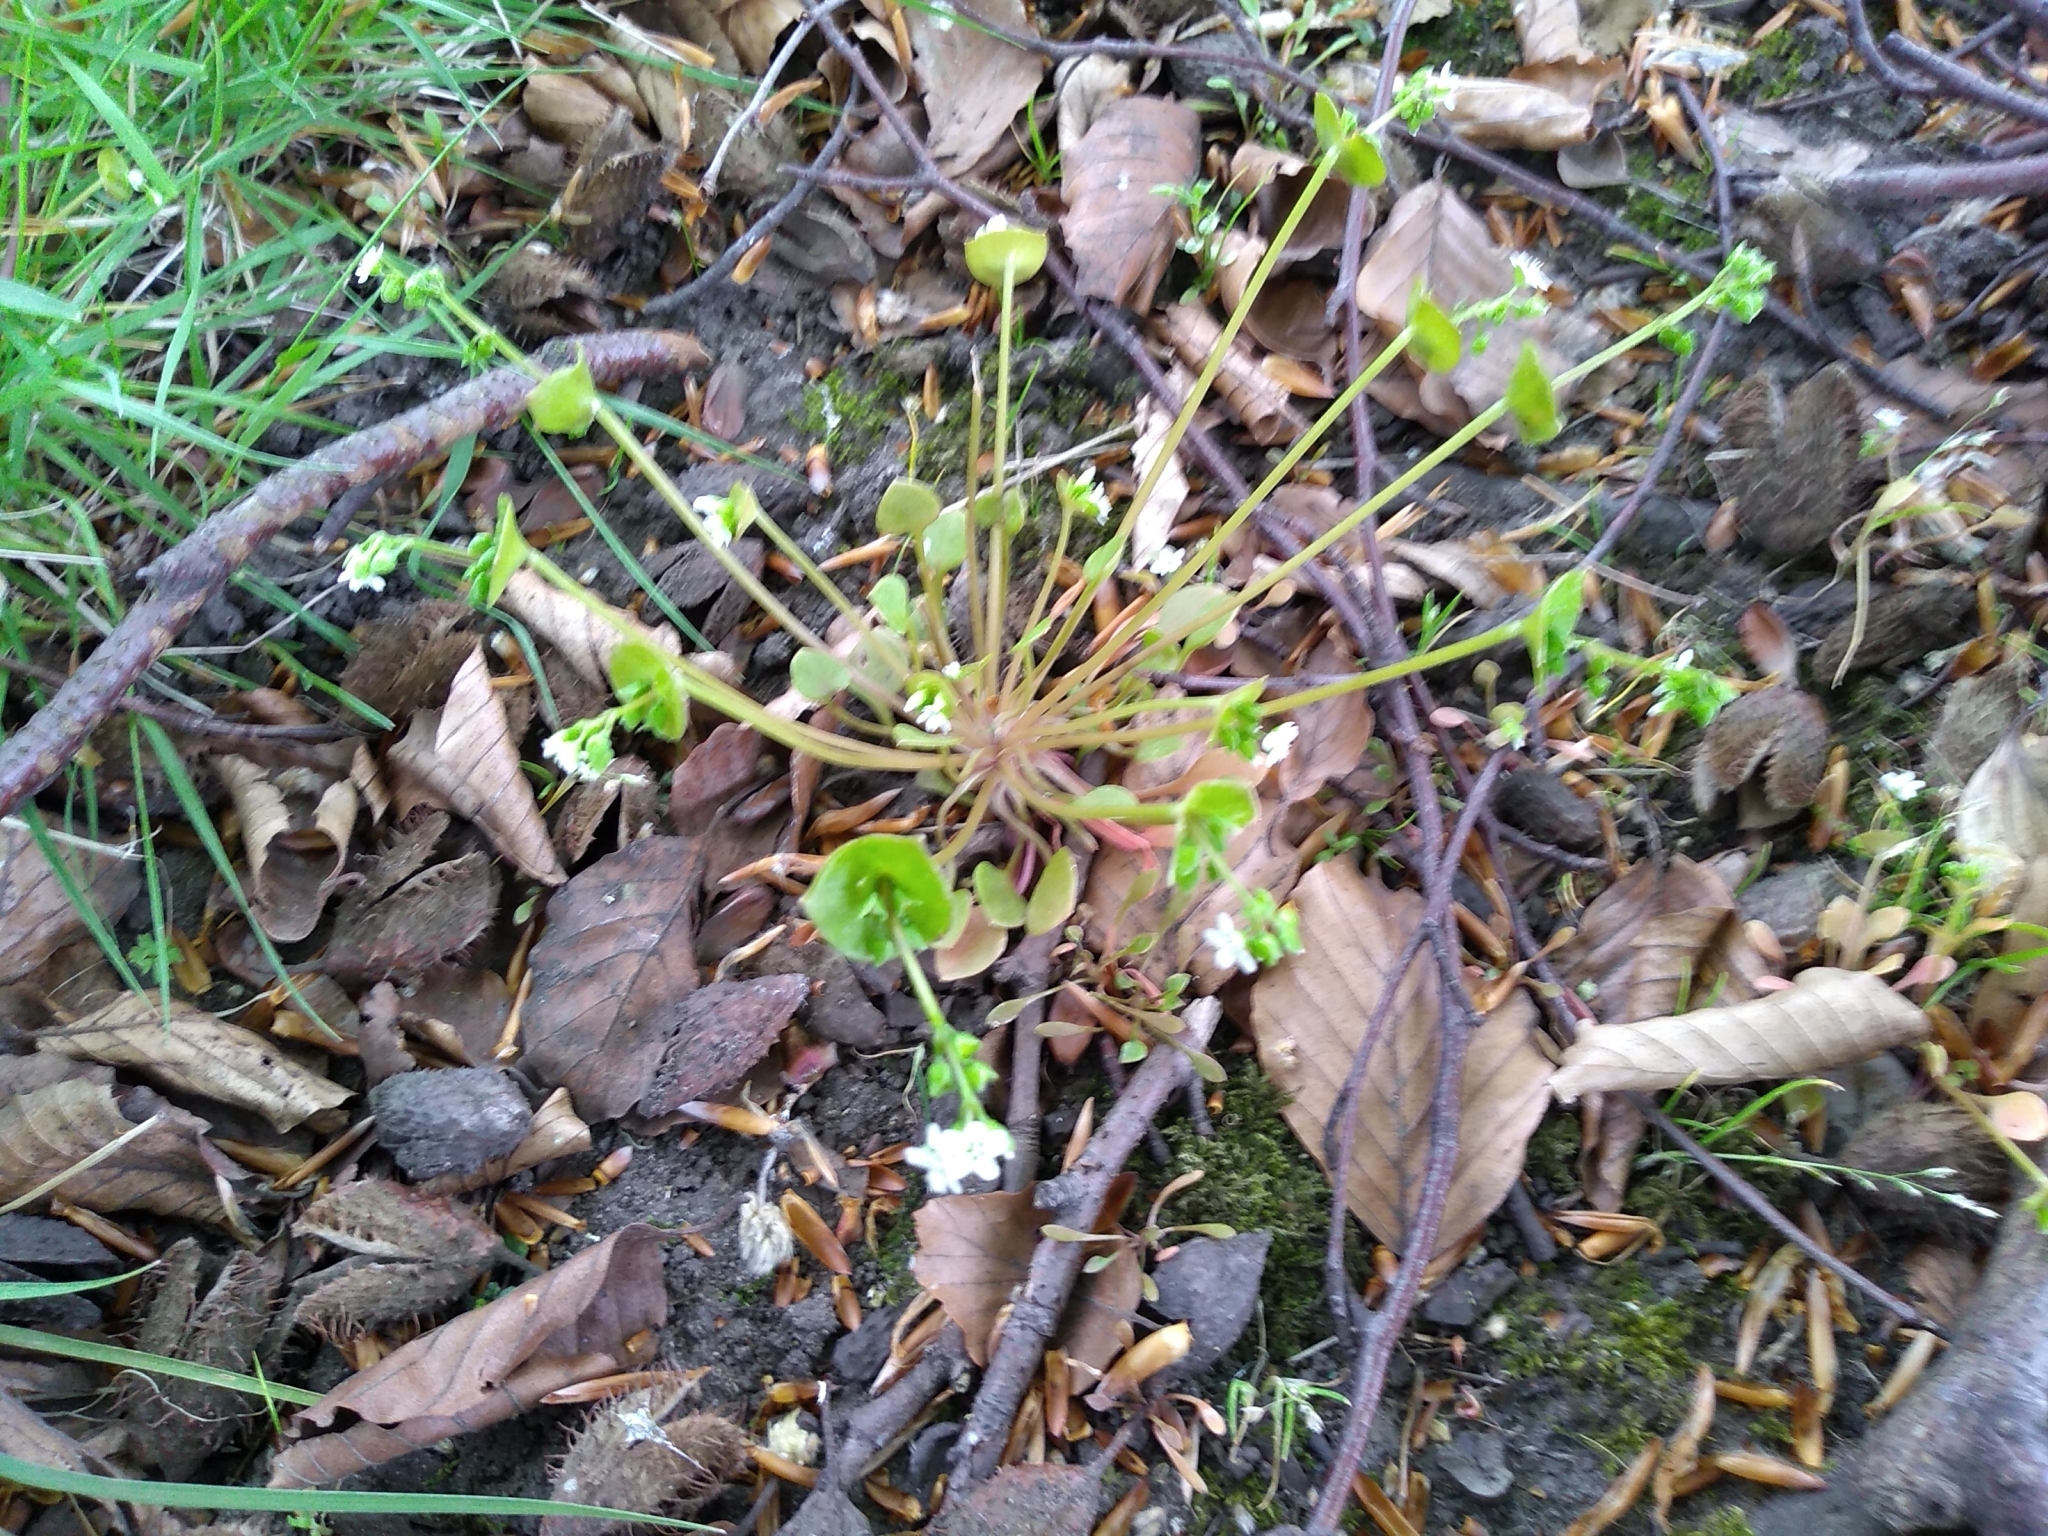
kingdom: Plantae
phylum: Tracheophyta
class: Magnoliopsida
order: Caryophyllales
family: Montiaceae
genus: Claytonia
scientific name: Claytonia perfoliata
